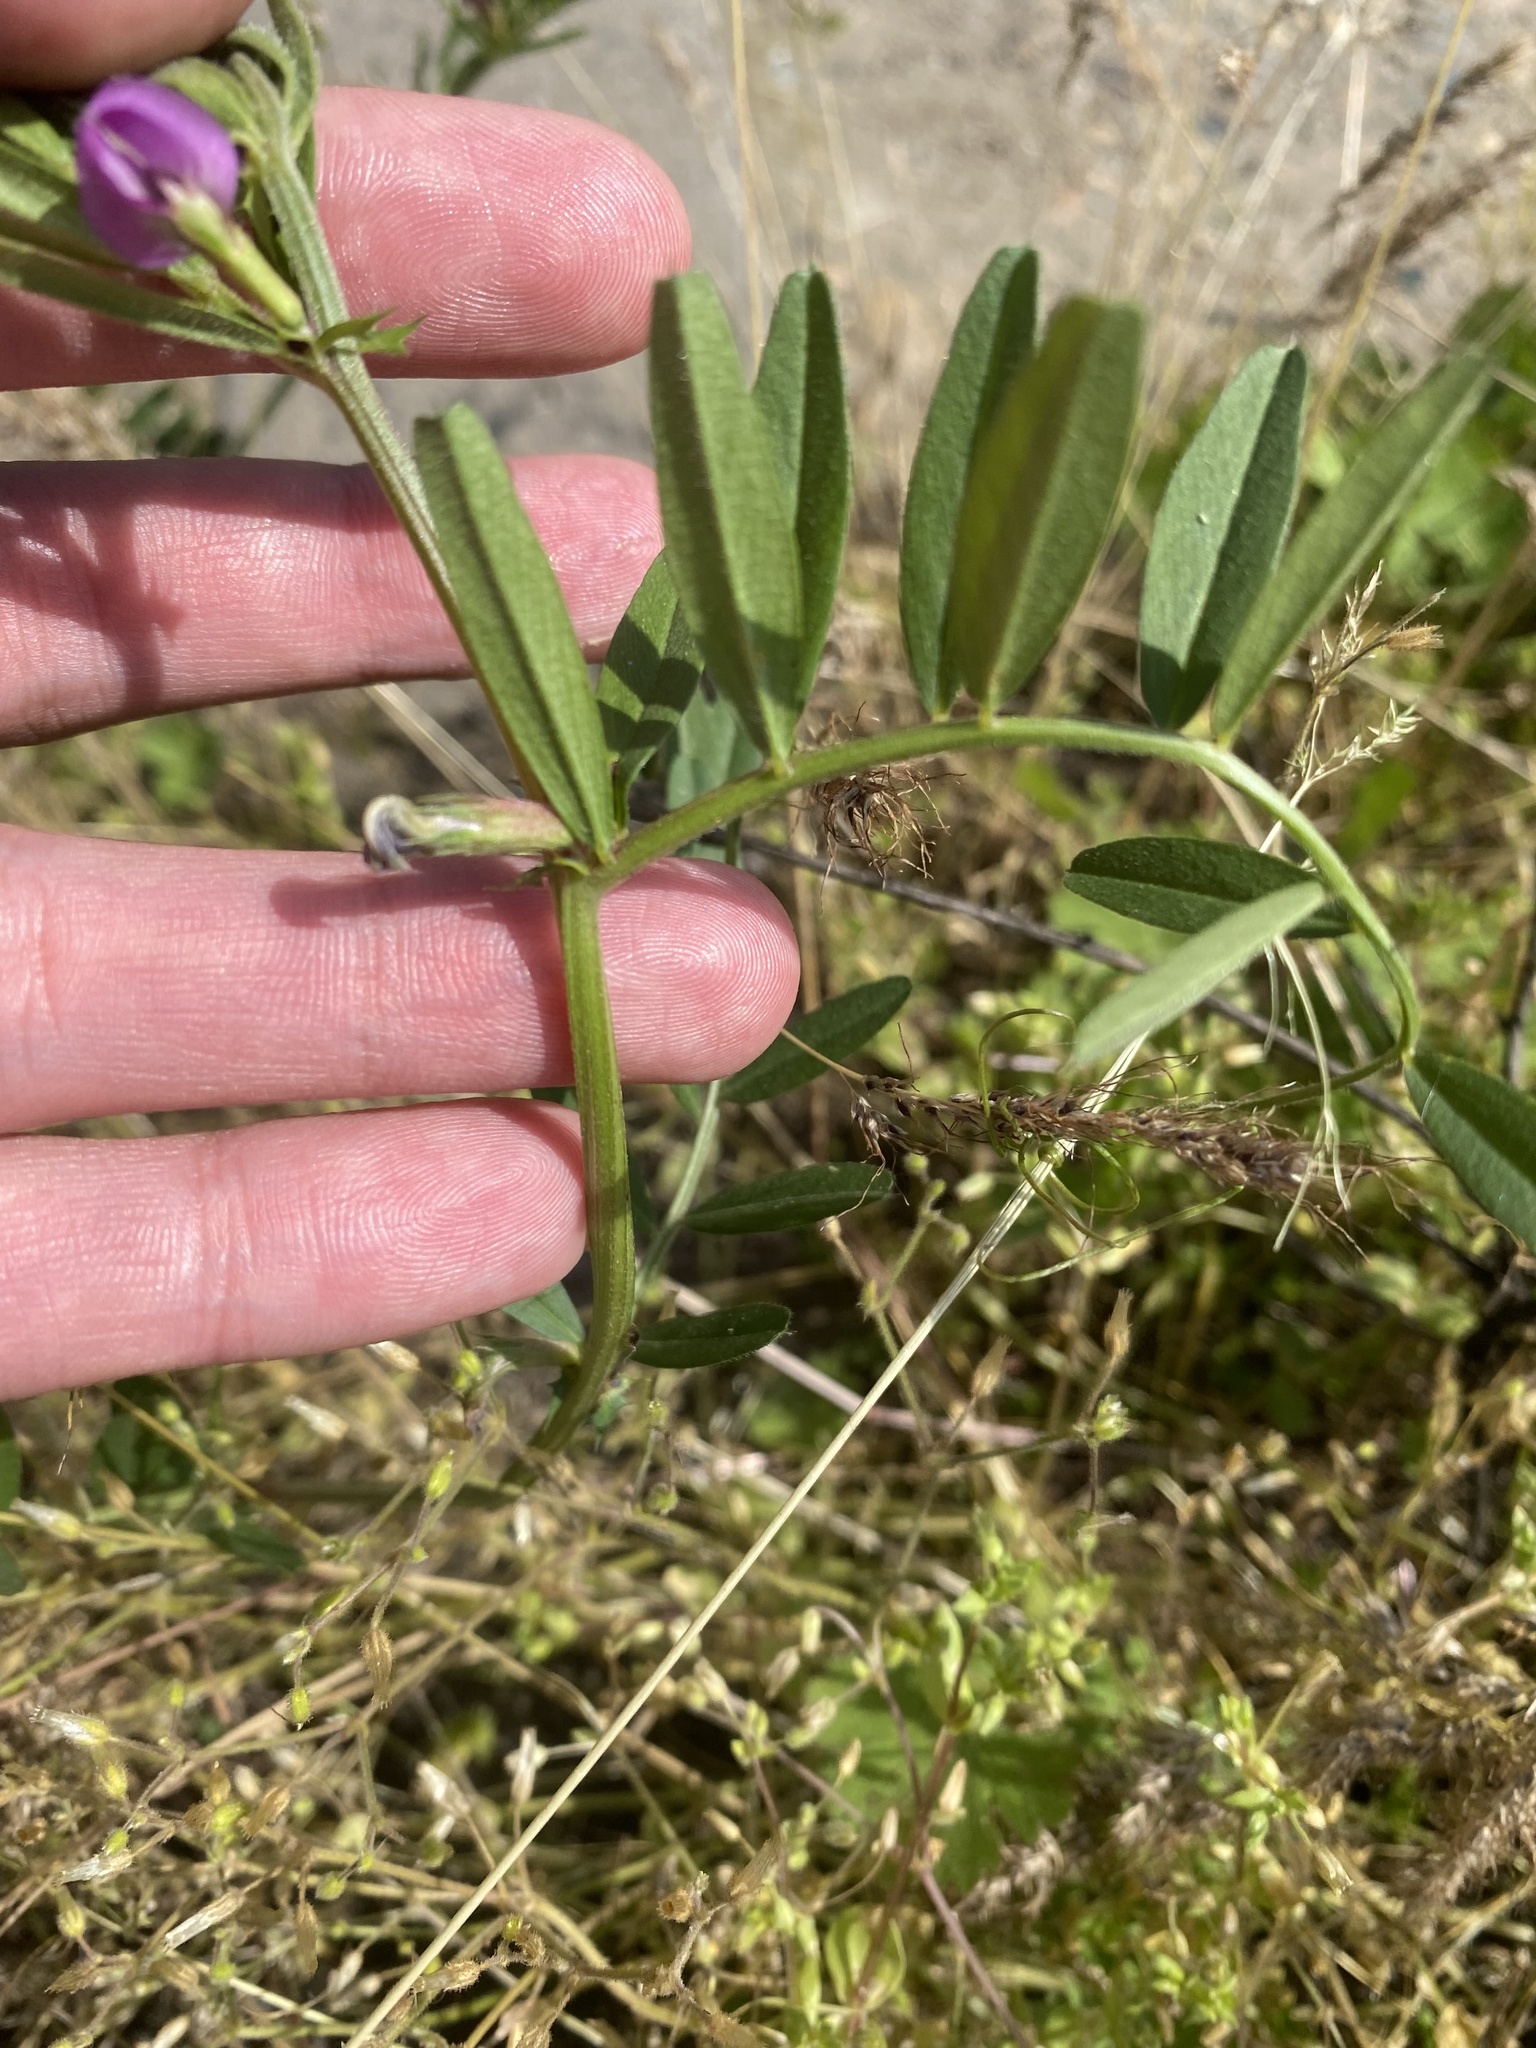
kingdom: Plantae
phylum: Tracheophyta
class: Magnoliopsida
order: Fabales
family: Fabaceae
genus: Vicia
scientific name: Vicia sativa
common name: Garden vetch
